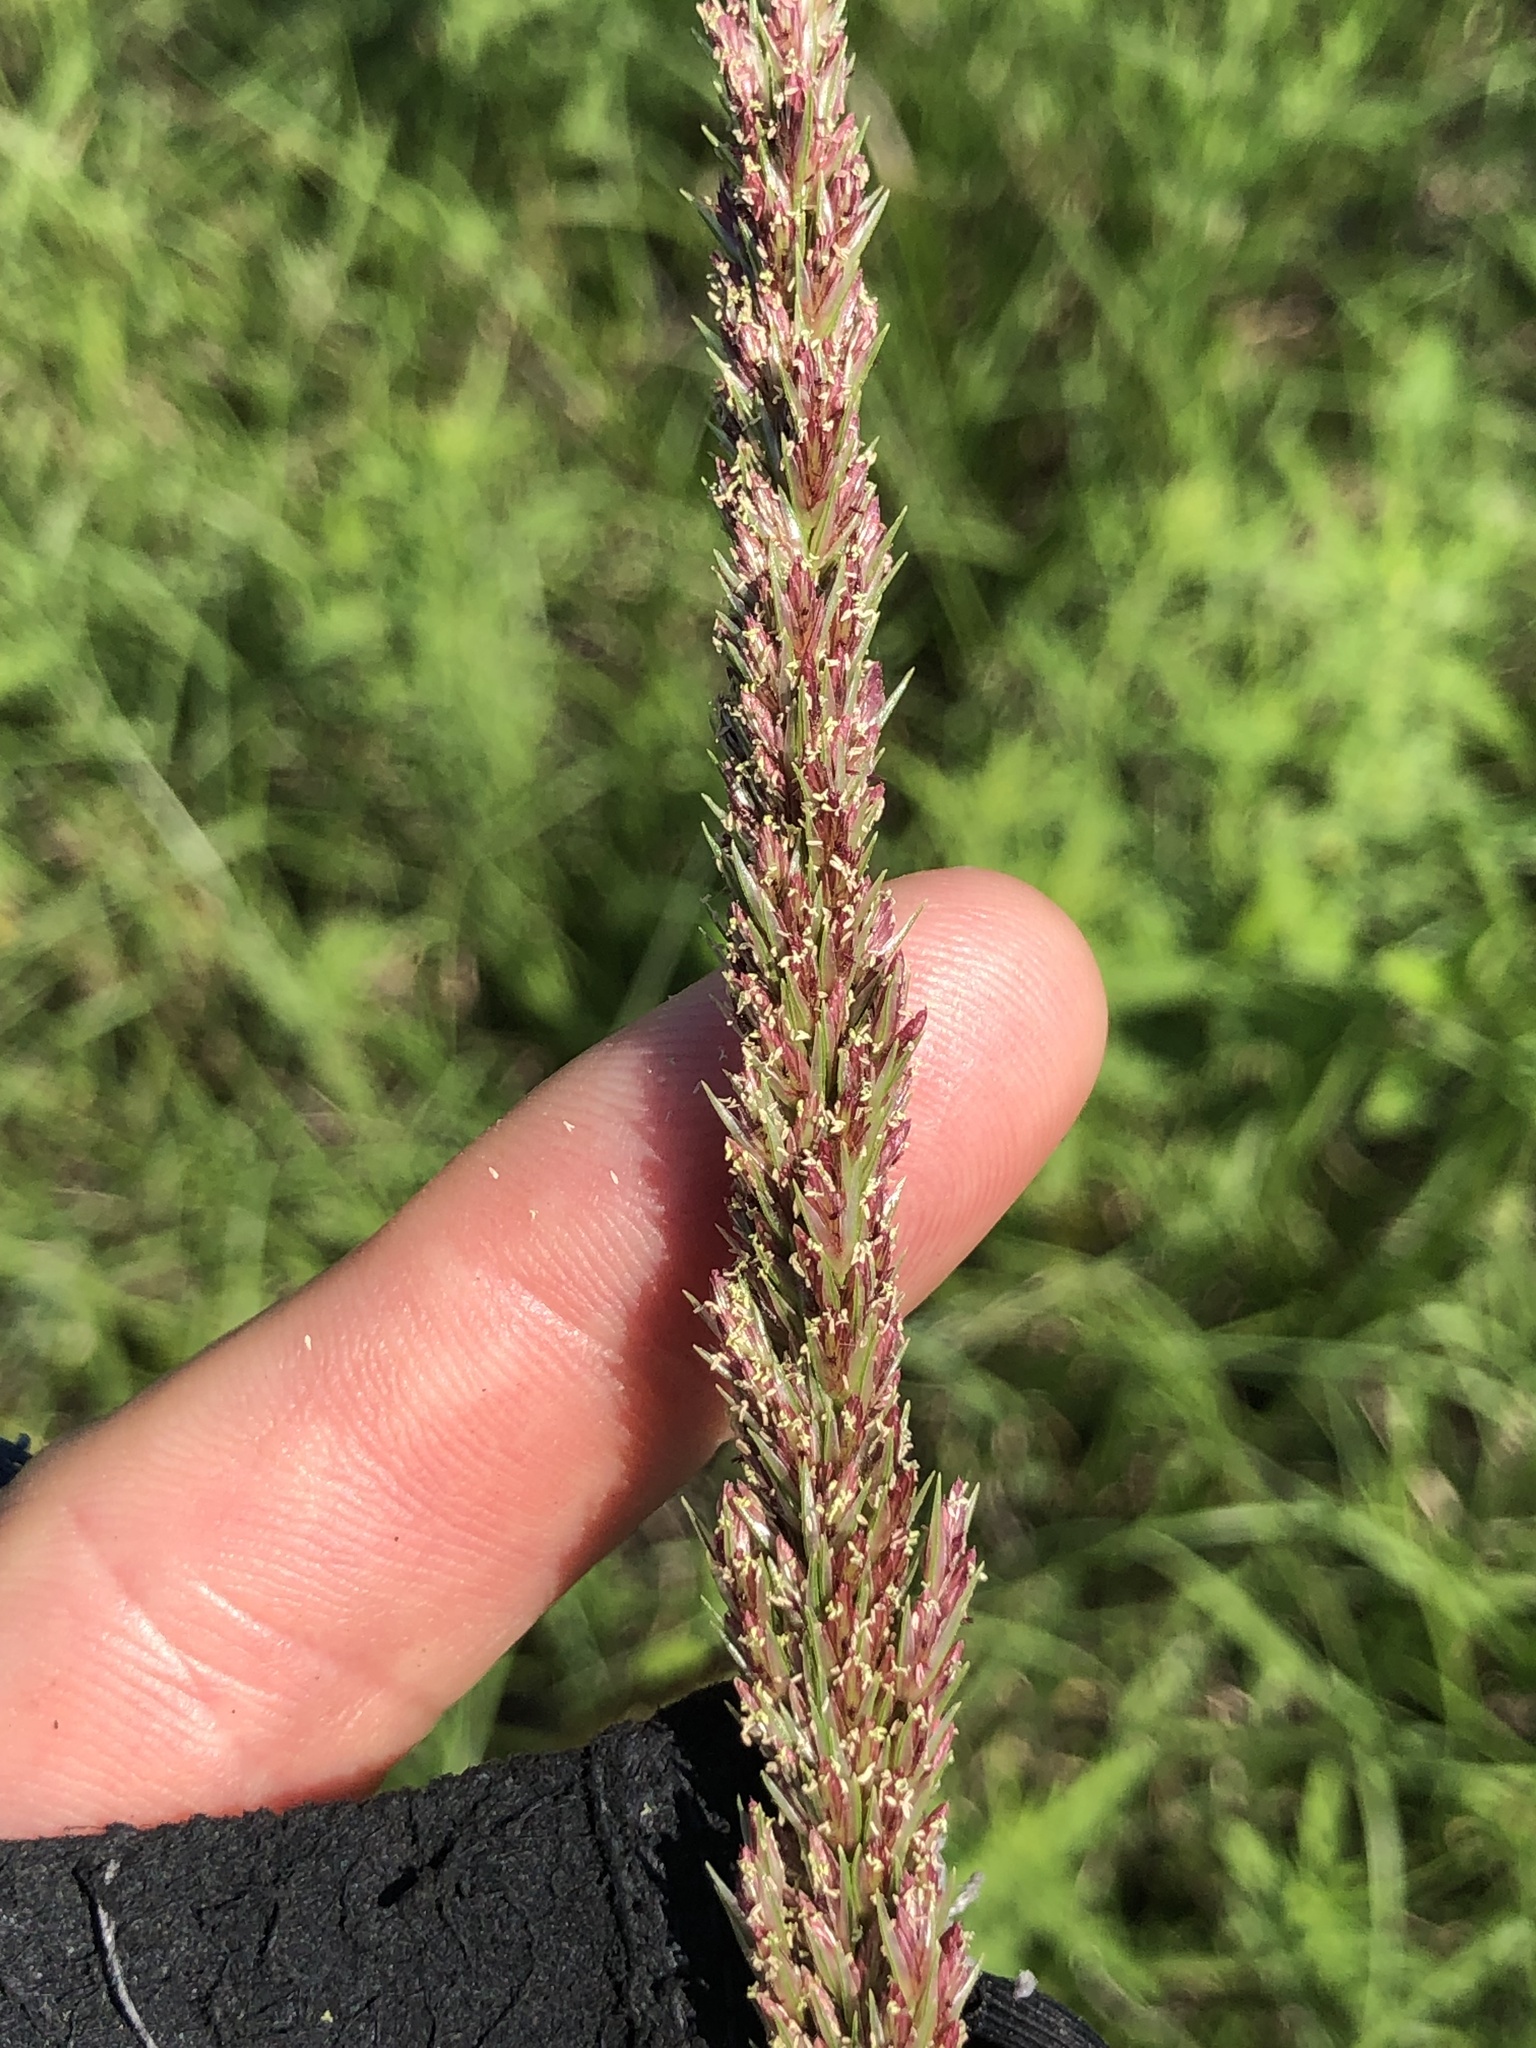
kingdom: Plantae
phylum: Tracheophyta
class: Liliopsida
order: Poales
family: Poaceae
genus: Tridens
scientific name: Tridens strictus
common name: Long-spike tridens
